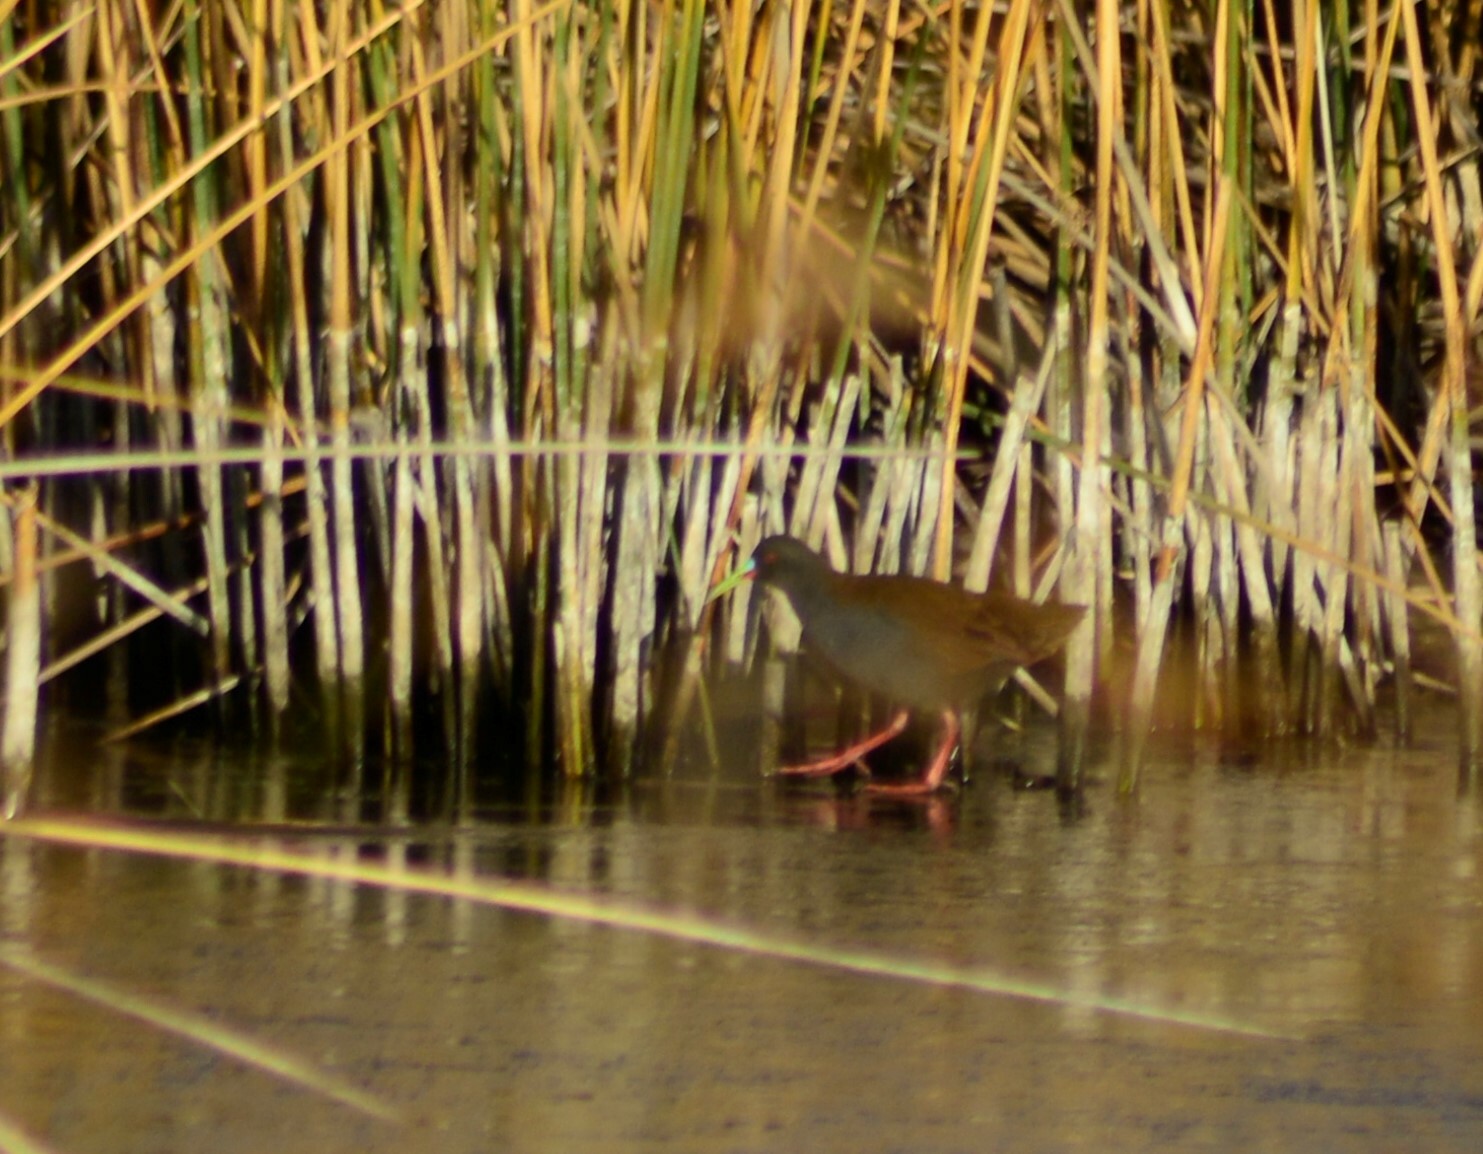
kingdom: Animalia
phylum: Chordata
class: Aves
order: Gruiformes
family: Rallidae
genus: Pardirallus
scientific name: Pardirallus sanguinolentus
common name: Plumbeous rail
